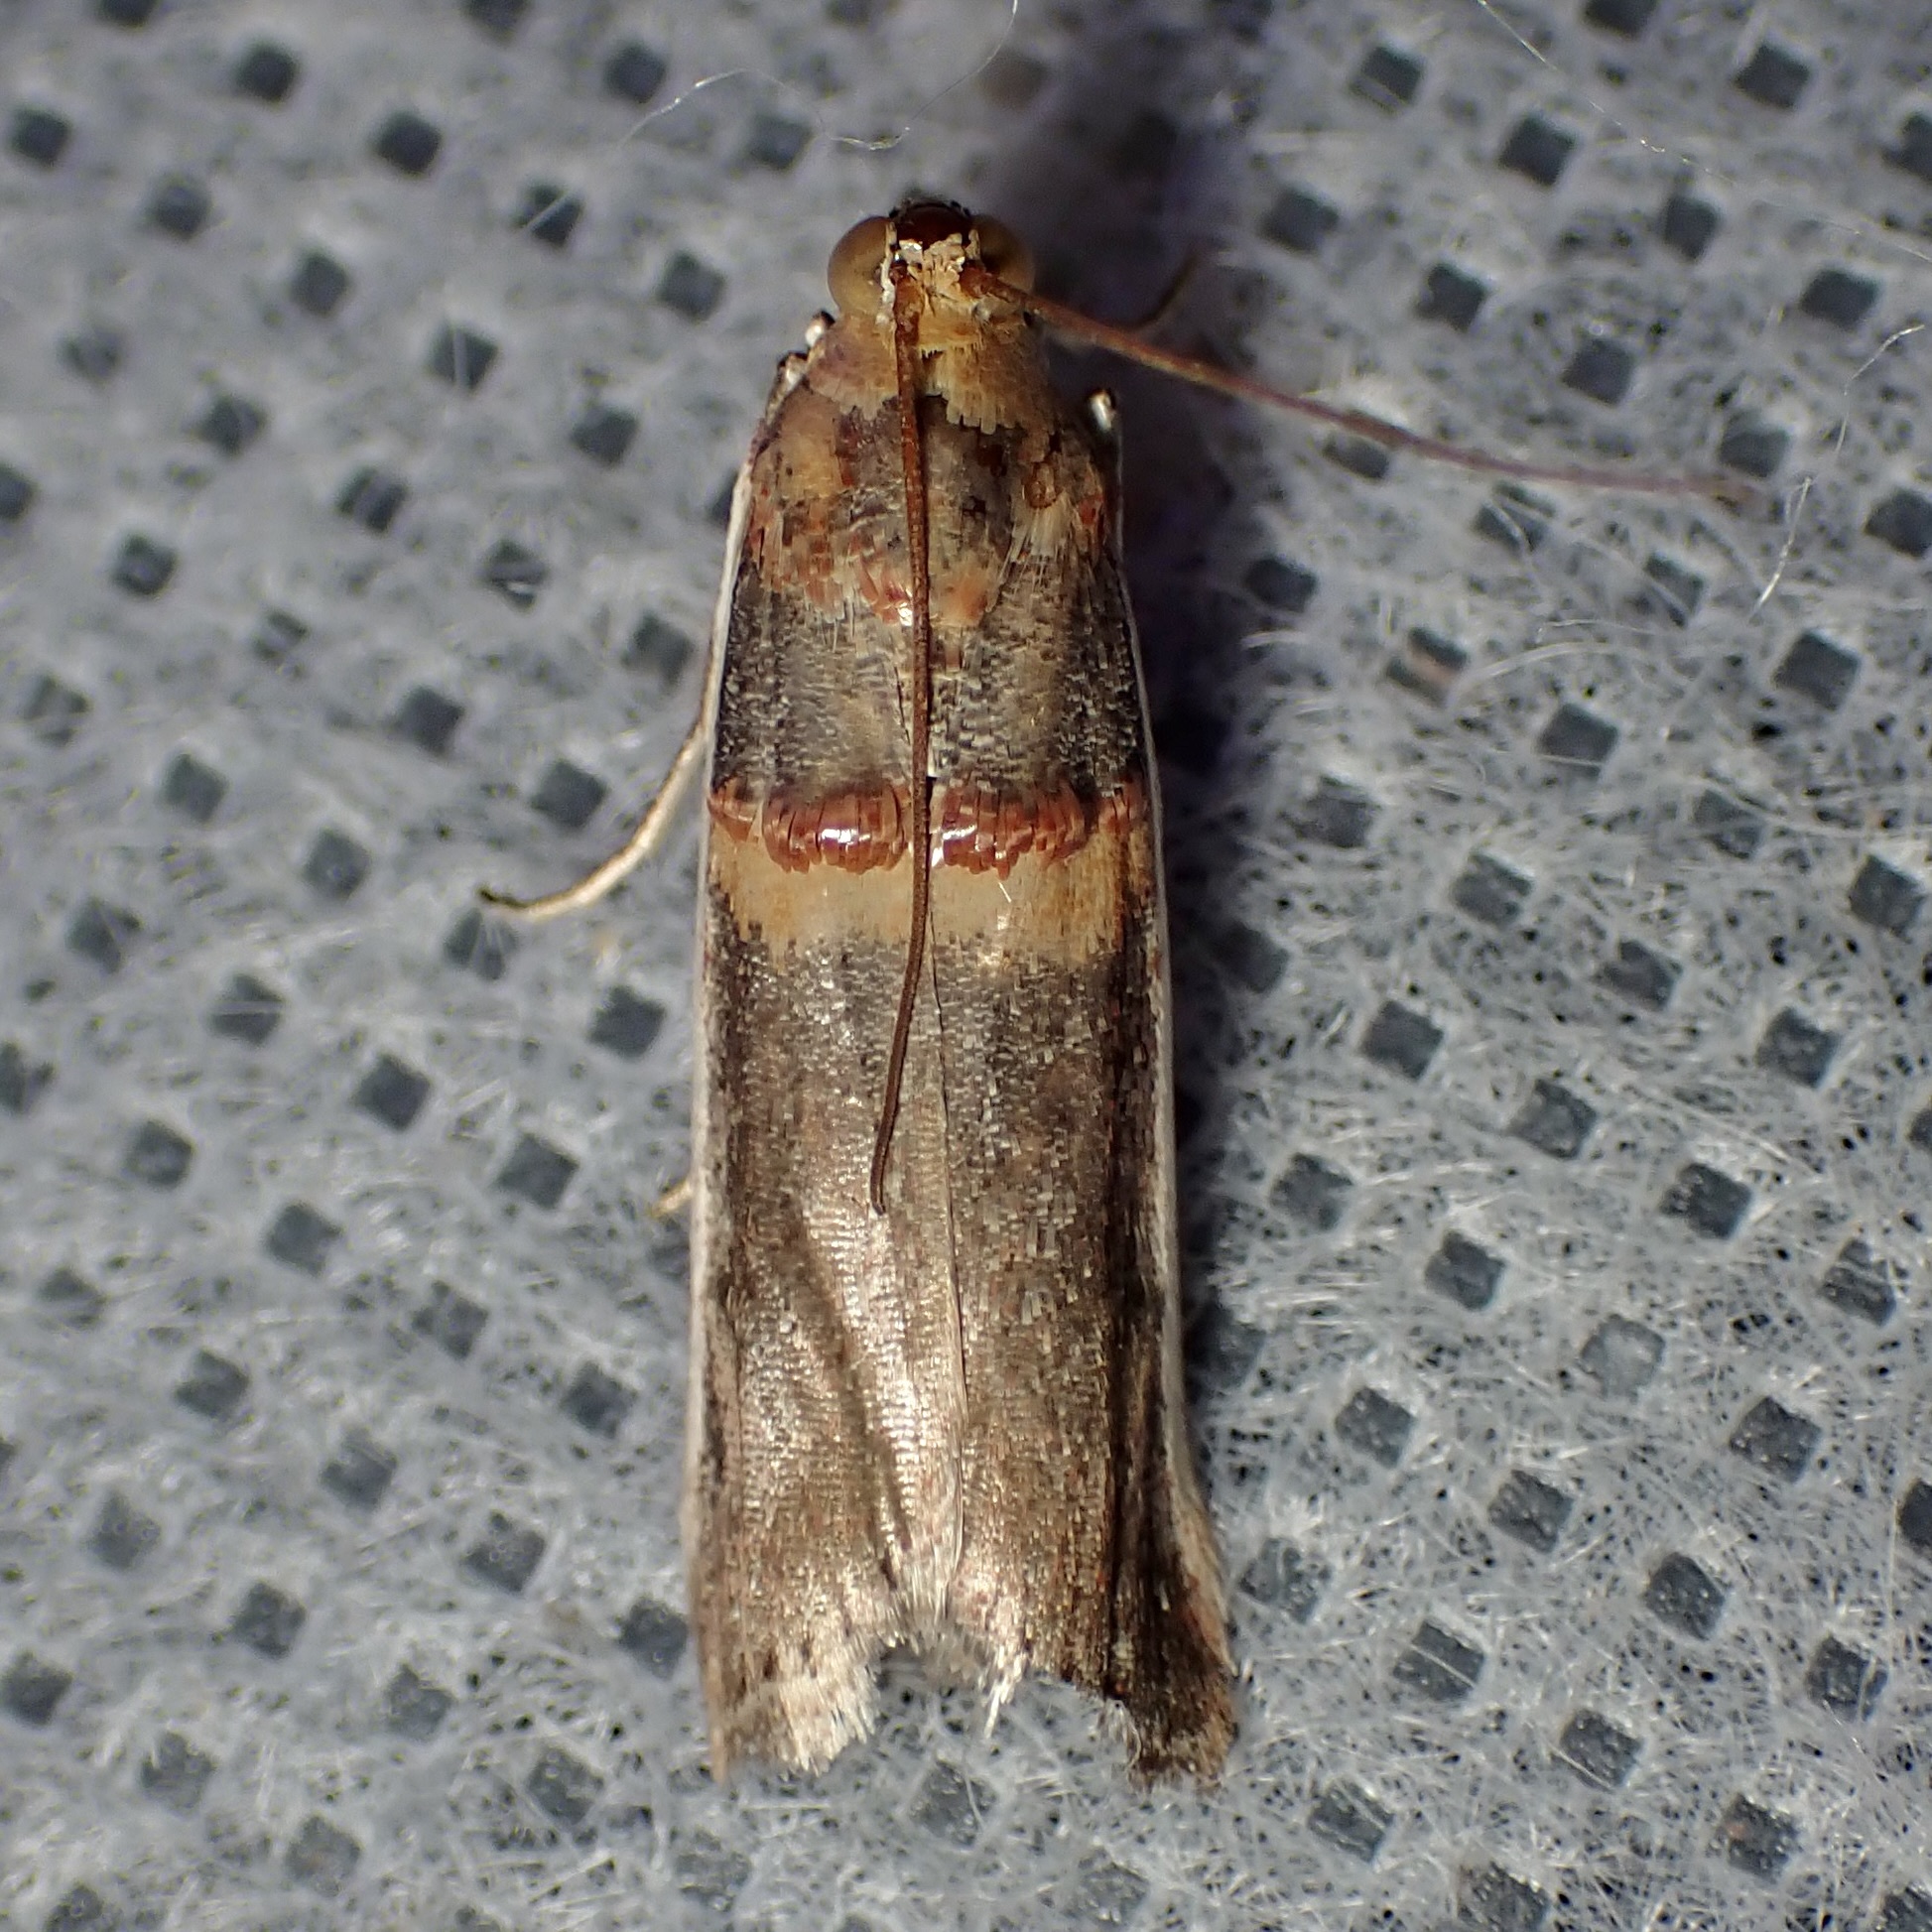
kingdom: Animalia
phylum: Arthropoda
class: Insecta
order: Lepidoptera
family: Pyralidae
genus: Etiella
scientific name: Etiella zinckenella
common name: Gold-banded etiella moth
